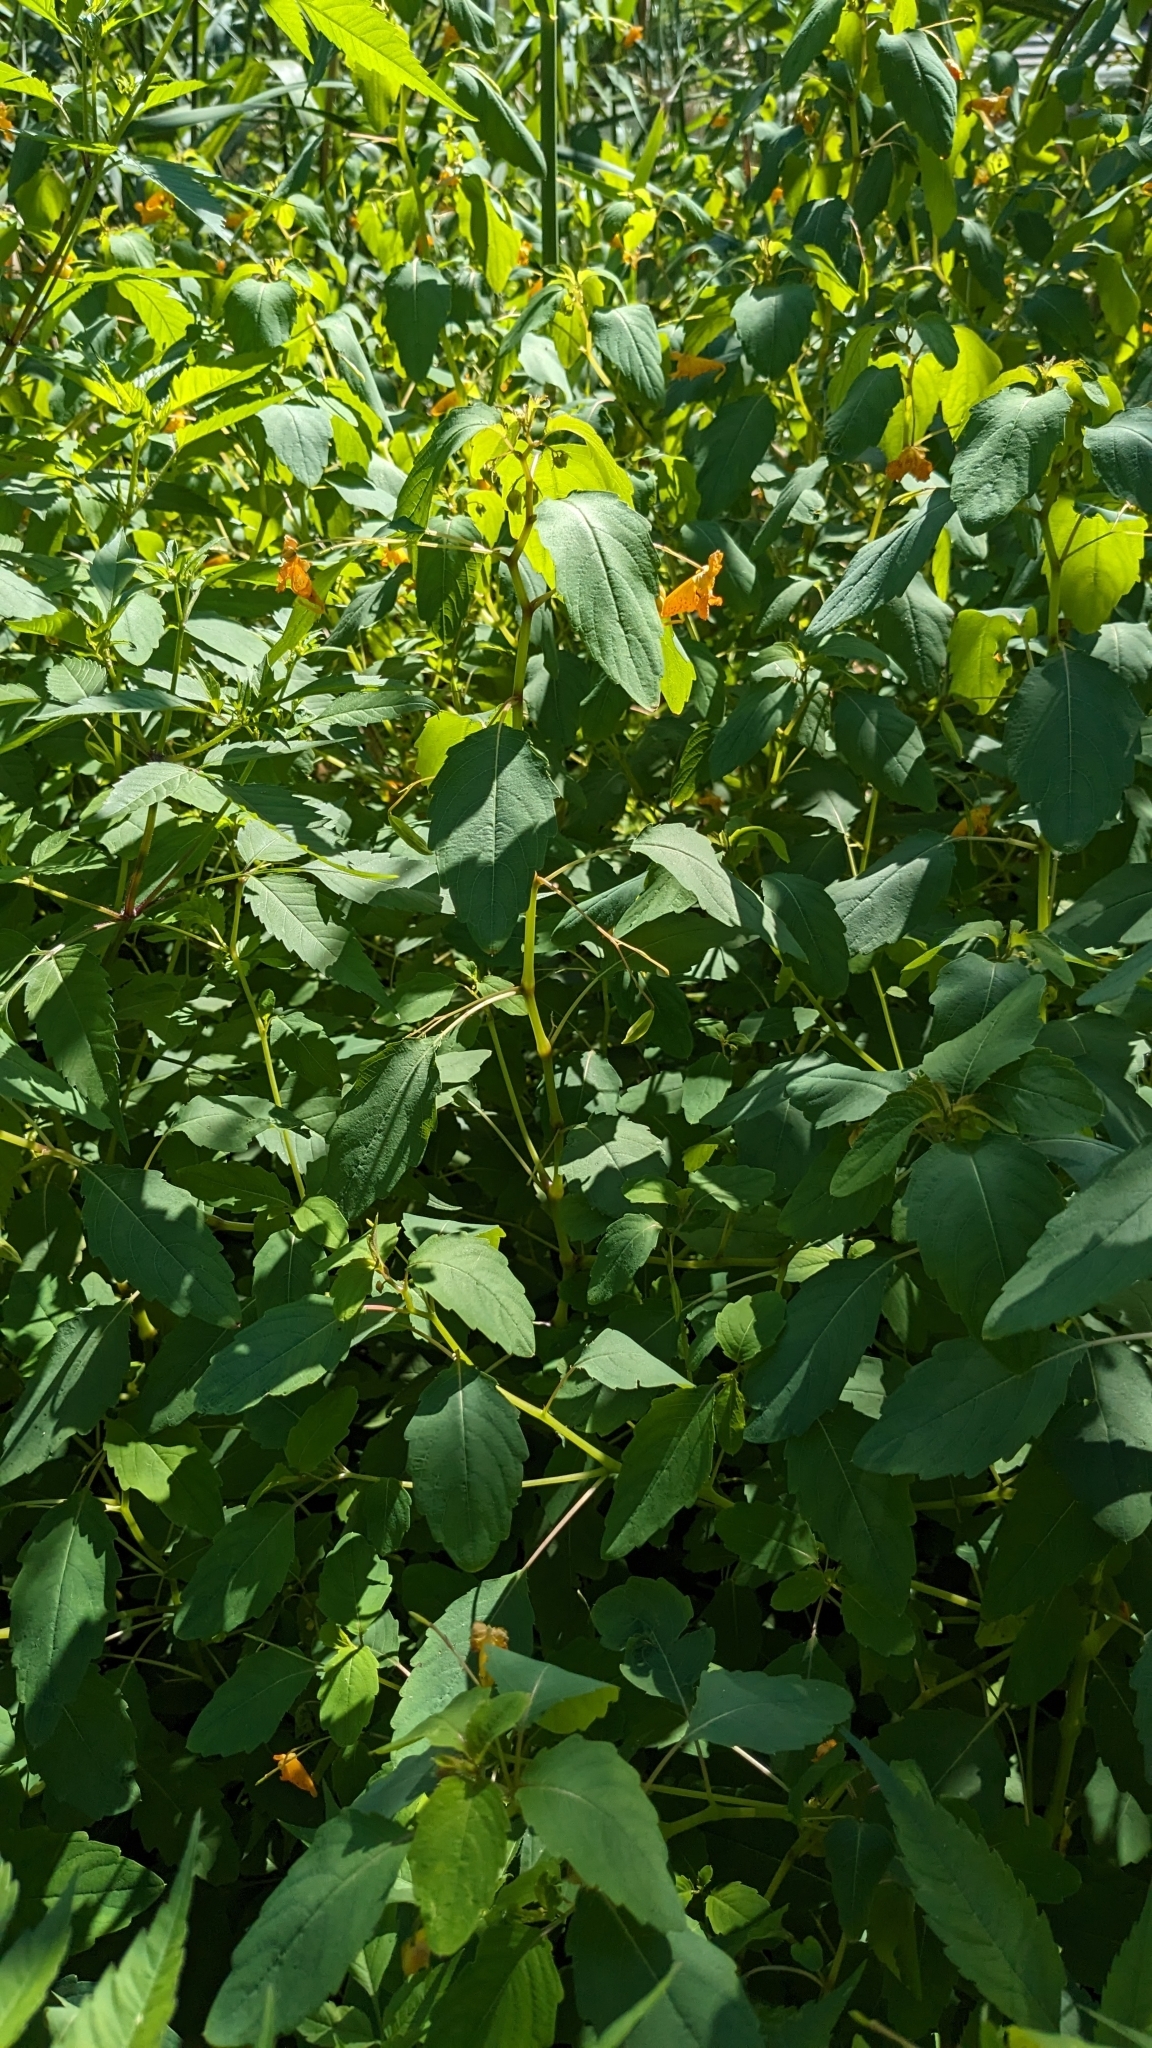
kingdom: Plantae
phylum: Tracheophyta
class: Magnoliopsida
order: Ericales
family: Balsaminaceae
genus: Impatiens
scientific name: Impatiens capensis
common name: Orange balsam
